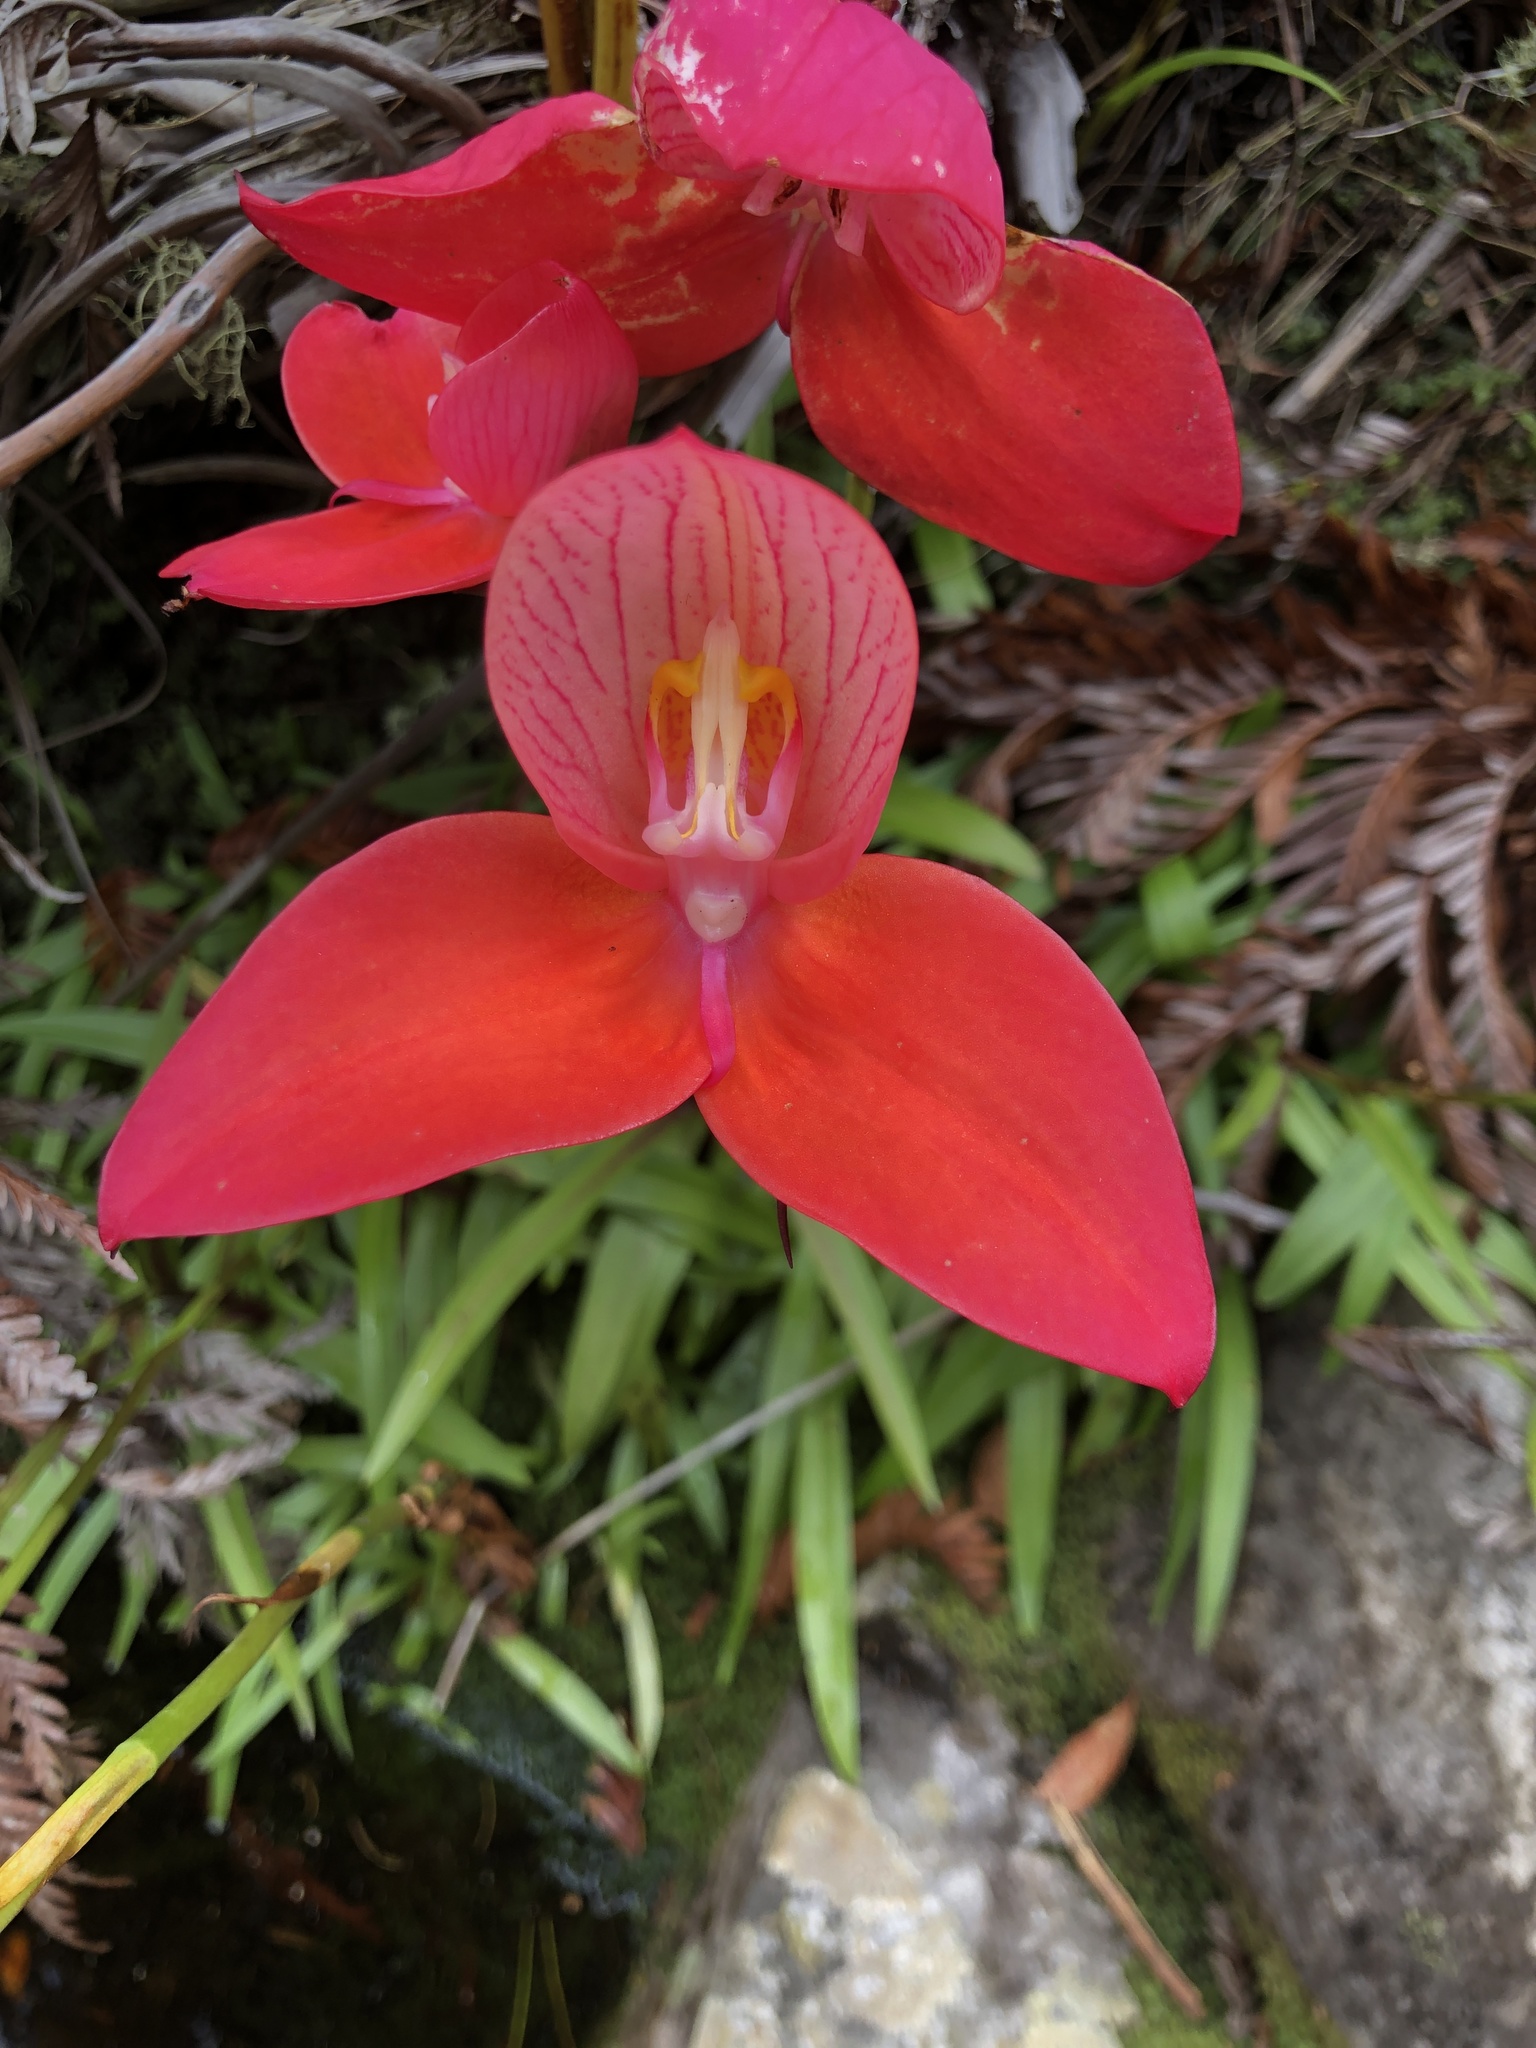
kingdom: Plantae
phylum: Tracheophyta
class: Liliopsida
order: Asparagales
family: Orchidaceae
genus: Disa
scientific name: Disa uniflora
